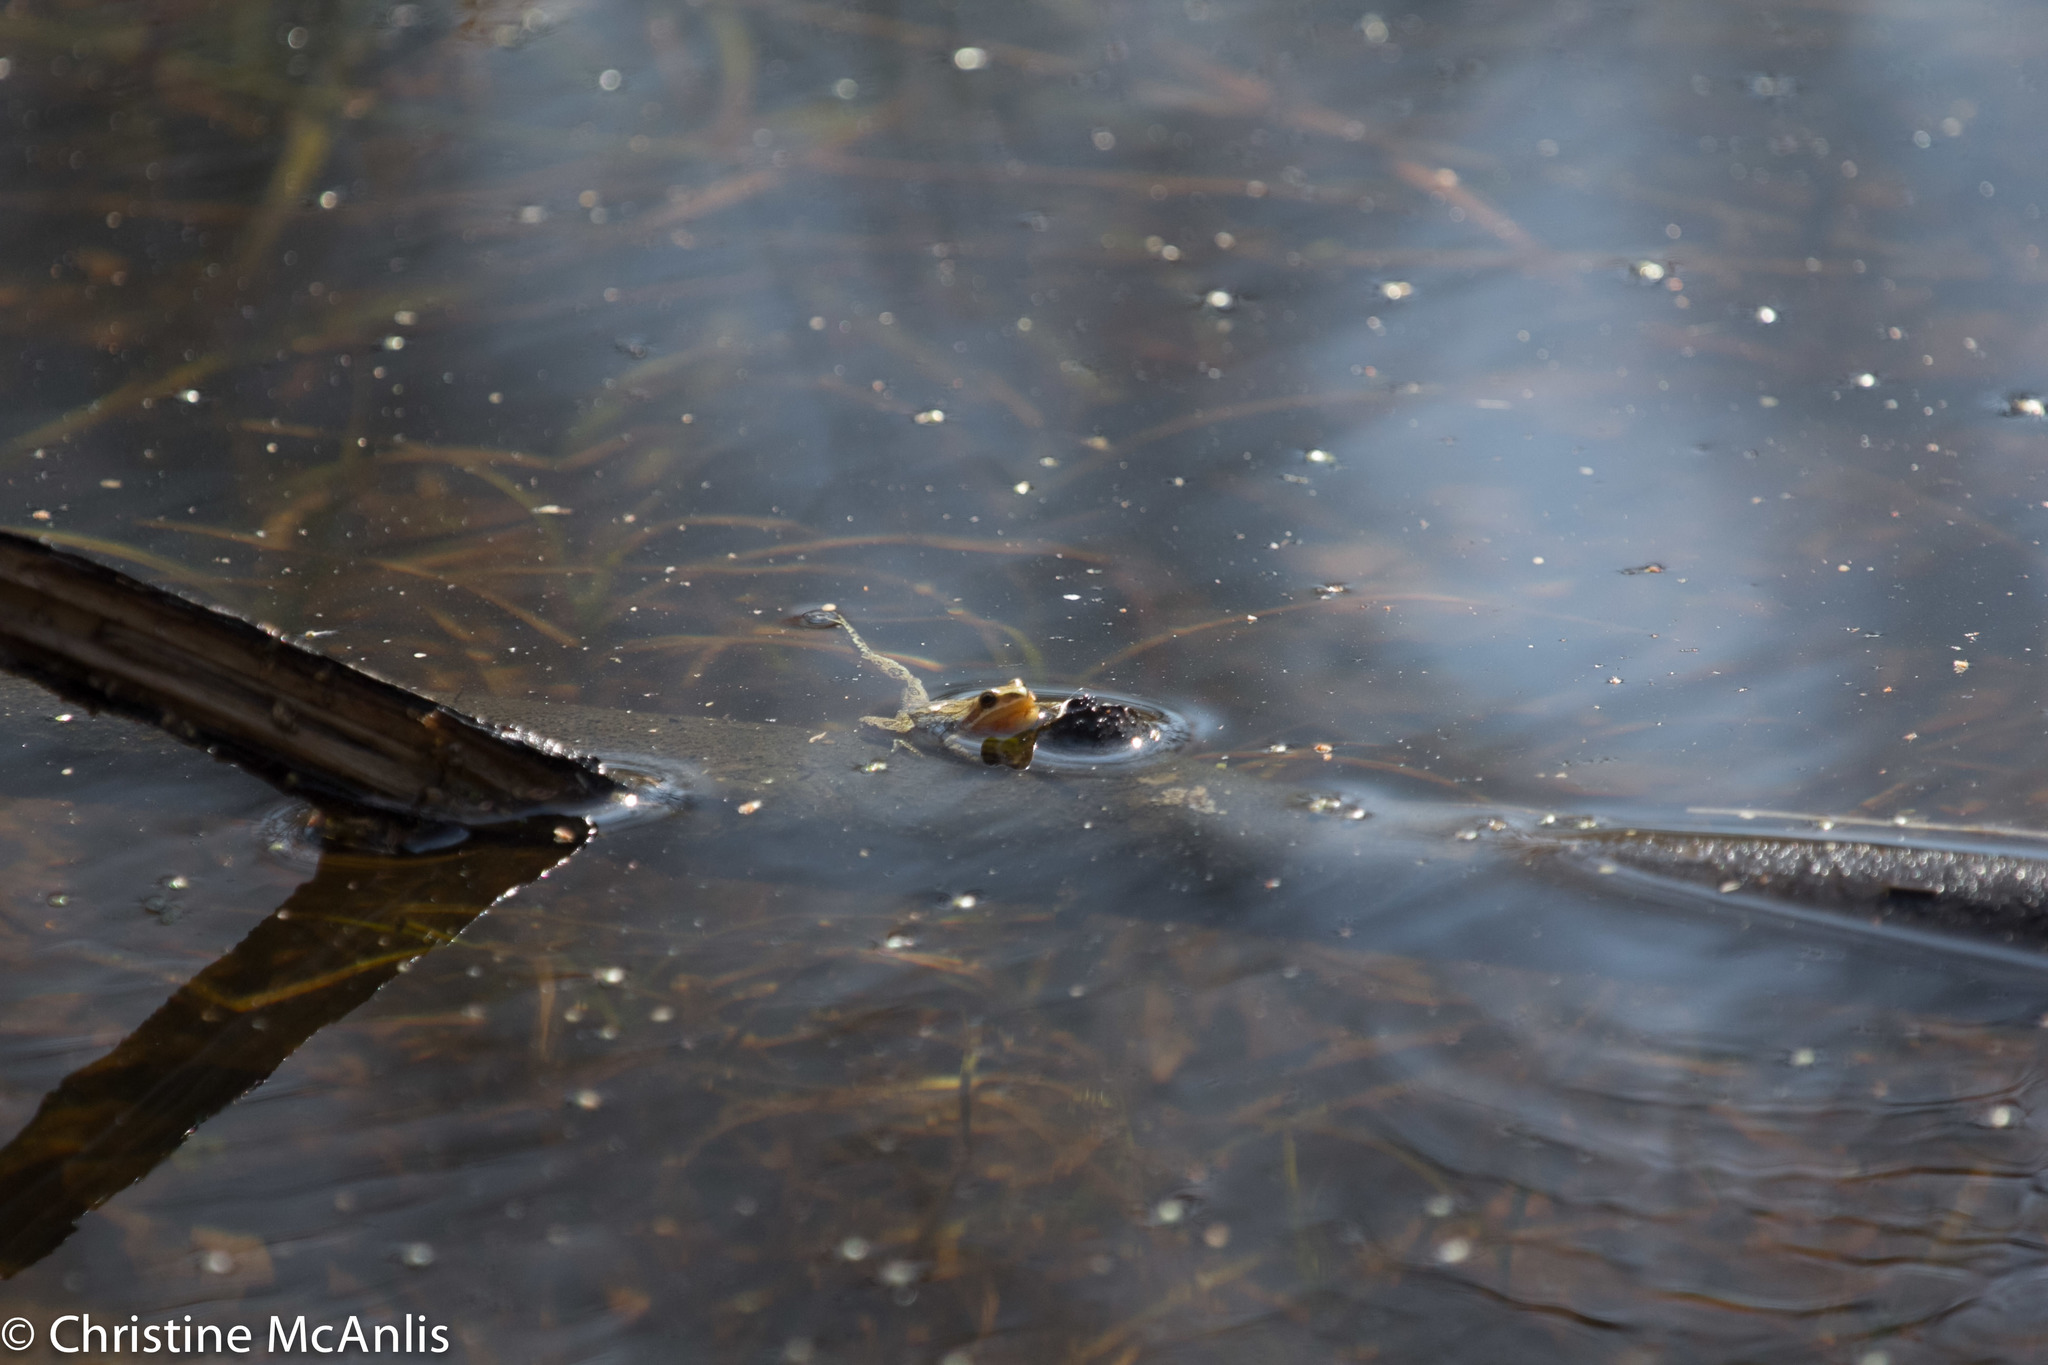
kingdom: Animalia
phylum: Chordata
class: Amphibia
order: Anura
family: Hylidae
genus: Pseudacris
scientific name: Pseudacris triseriata
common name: Western chorus frog
